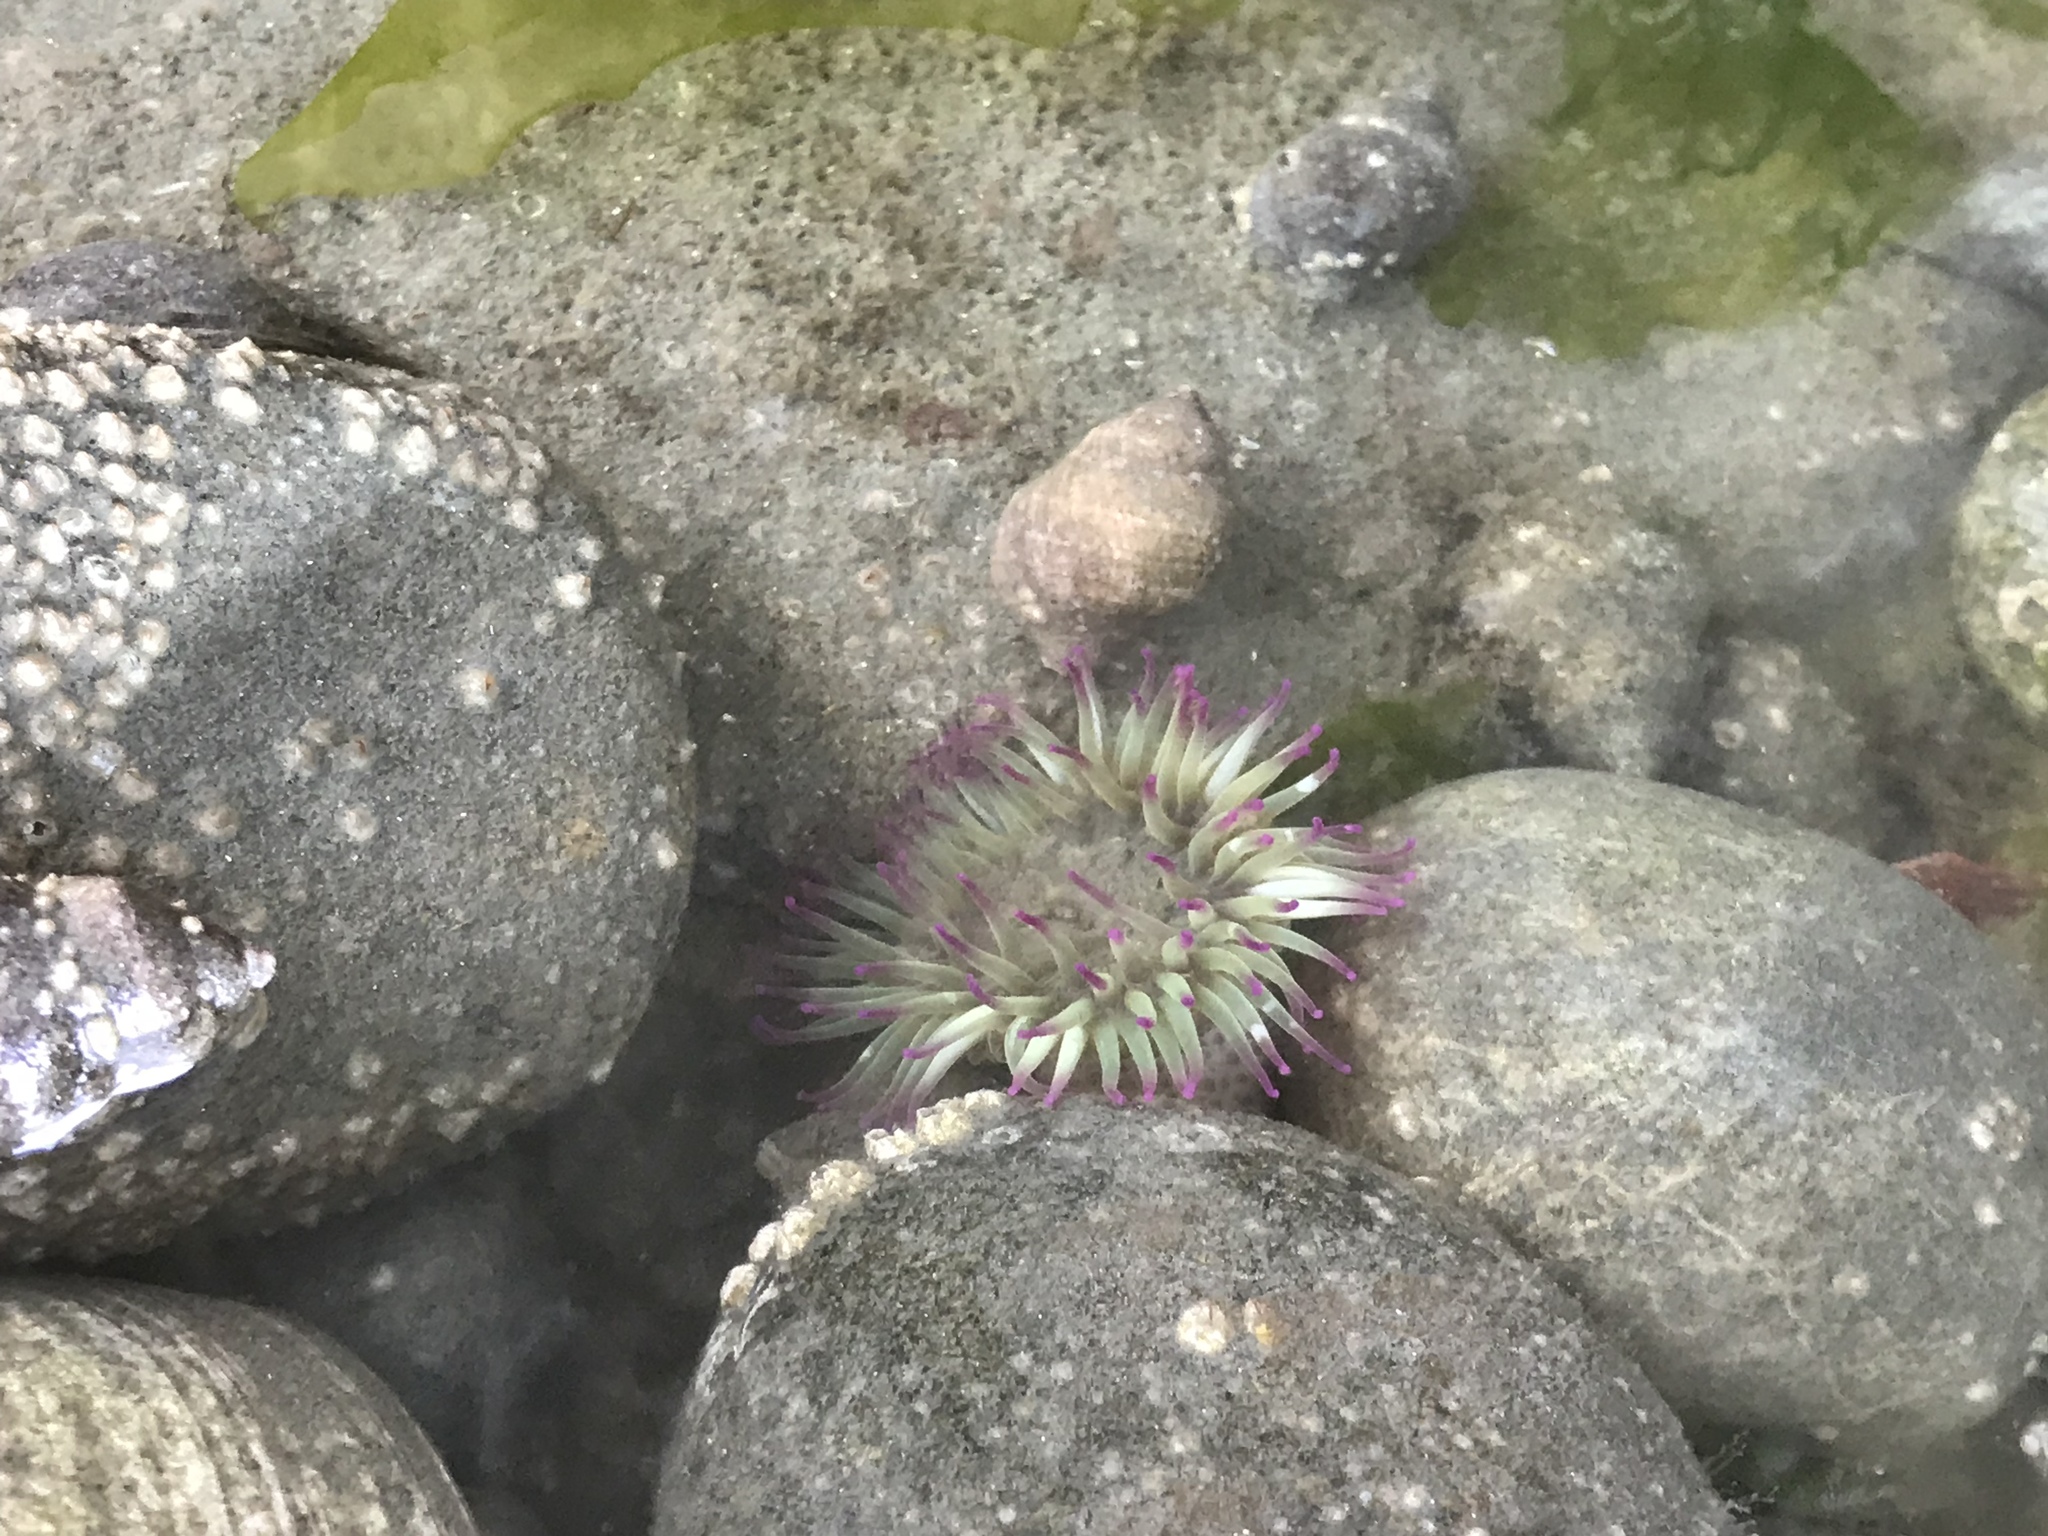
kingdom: Animalia
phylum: Cnidaria
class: Anthozoa
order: Actiniaria
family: Actiniidae
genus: Anthopleura
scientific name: Anthopleura elegantissima
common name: Clonal anemone
